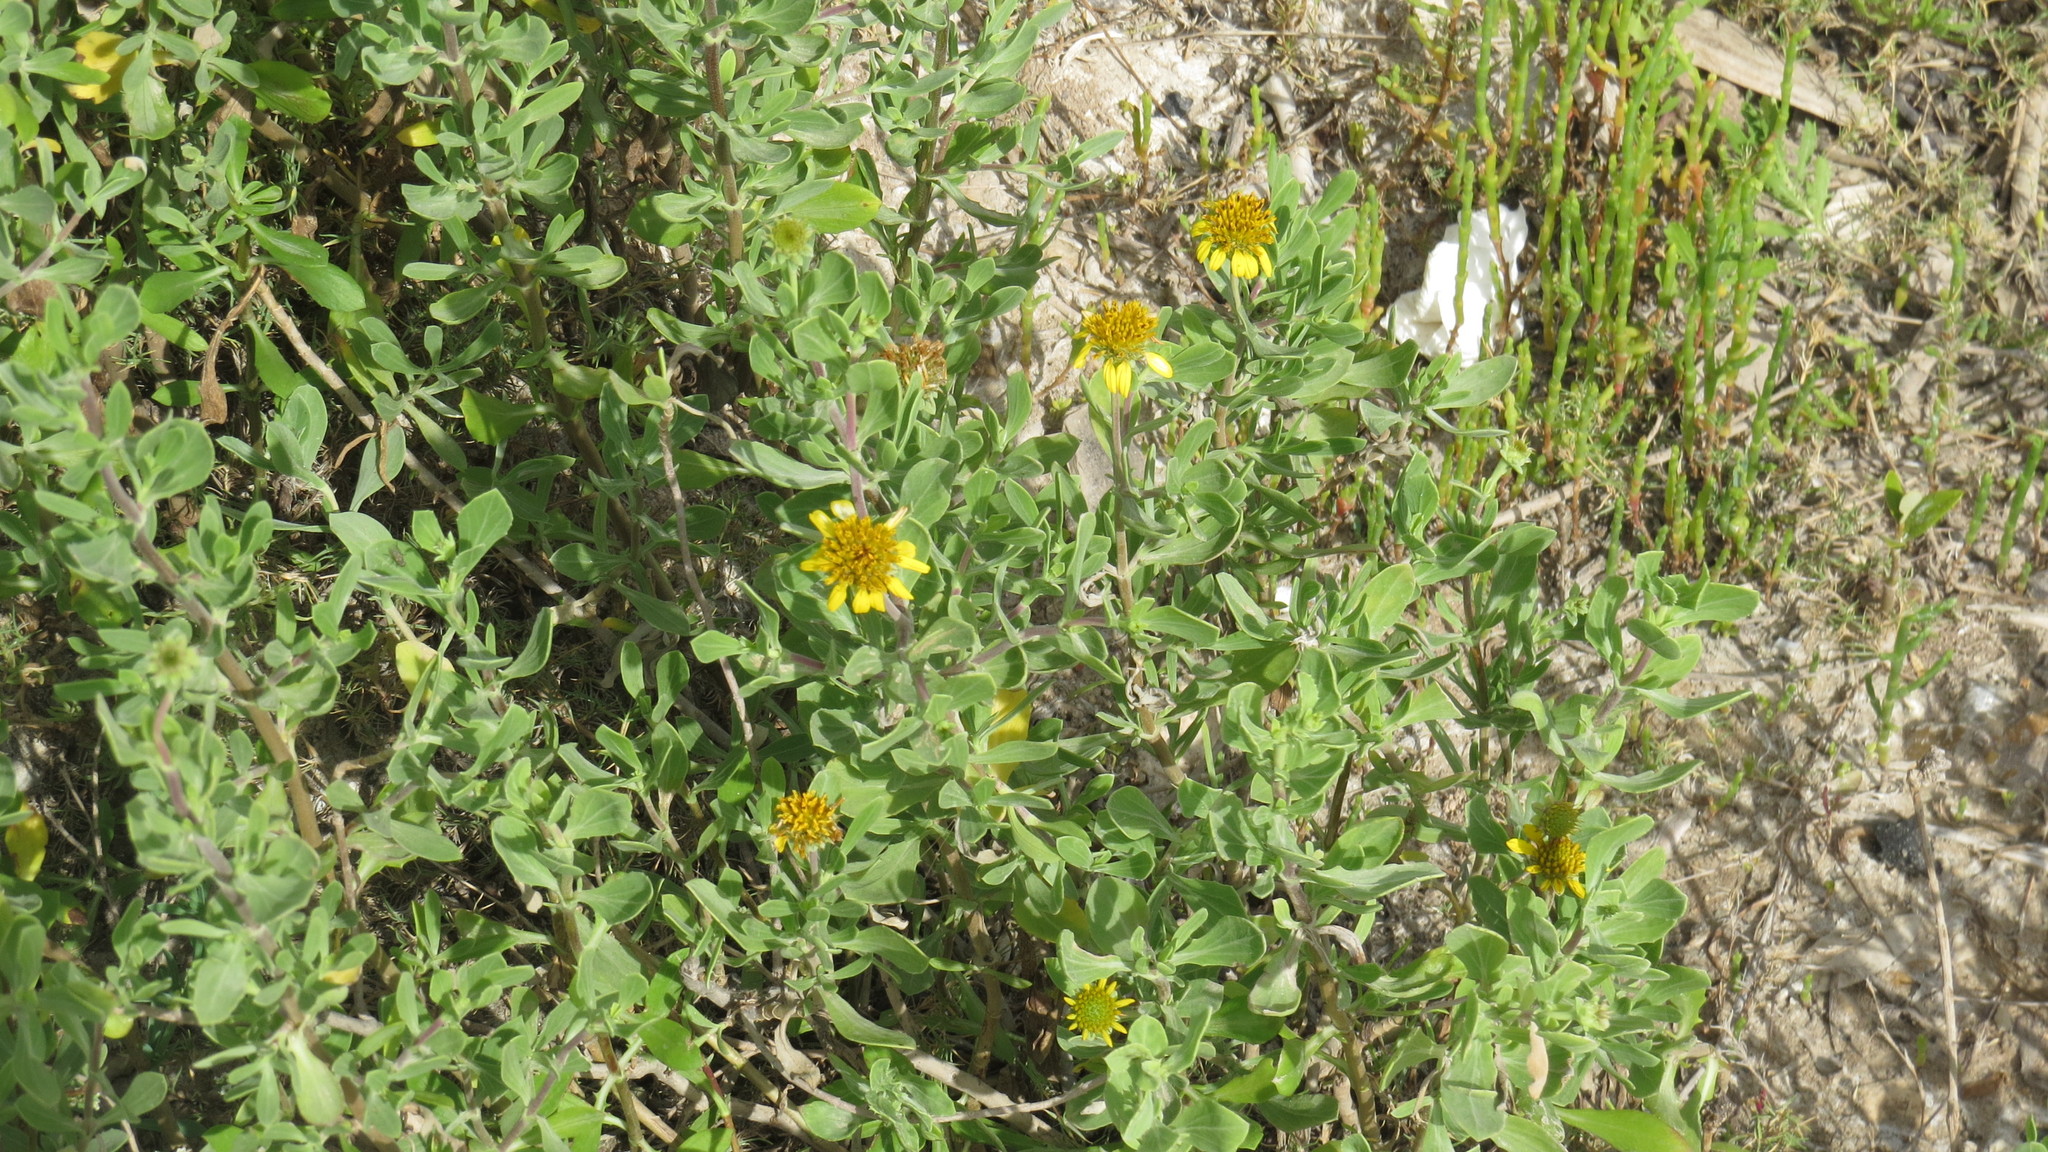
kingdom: Plantae
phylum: Tracheophyta
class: Magnoliopsida
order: Asterales
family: Asteraceae
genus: Borrichia
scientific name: Borrichia frutescens
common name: Sea oxeye
